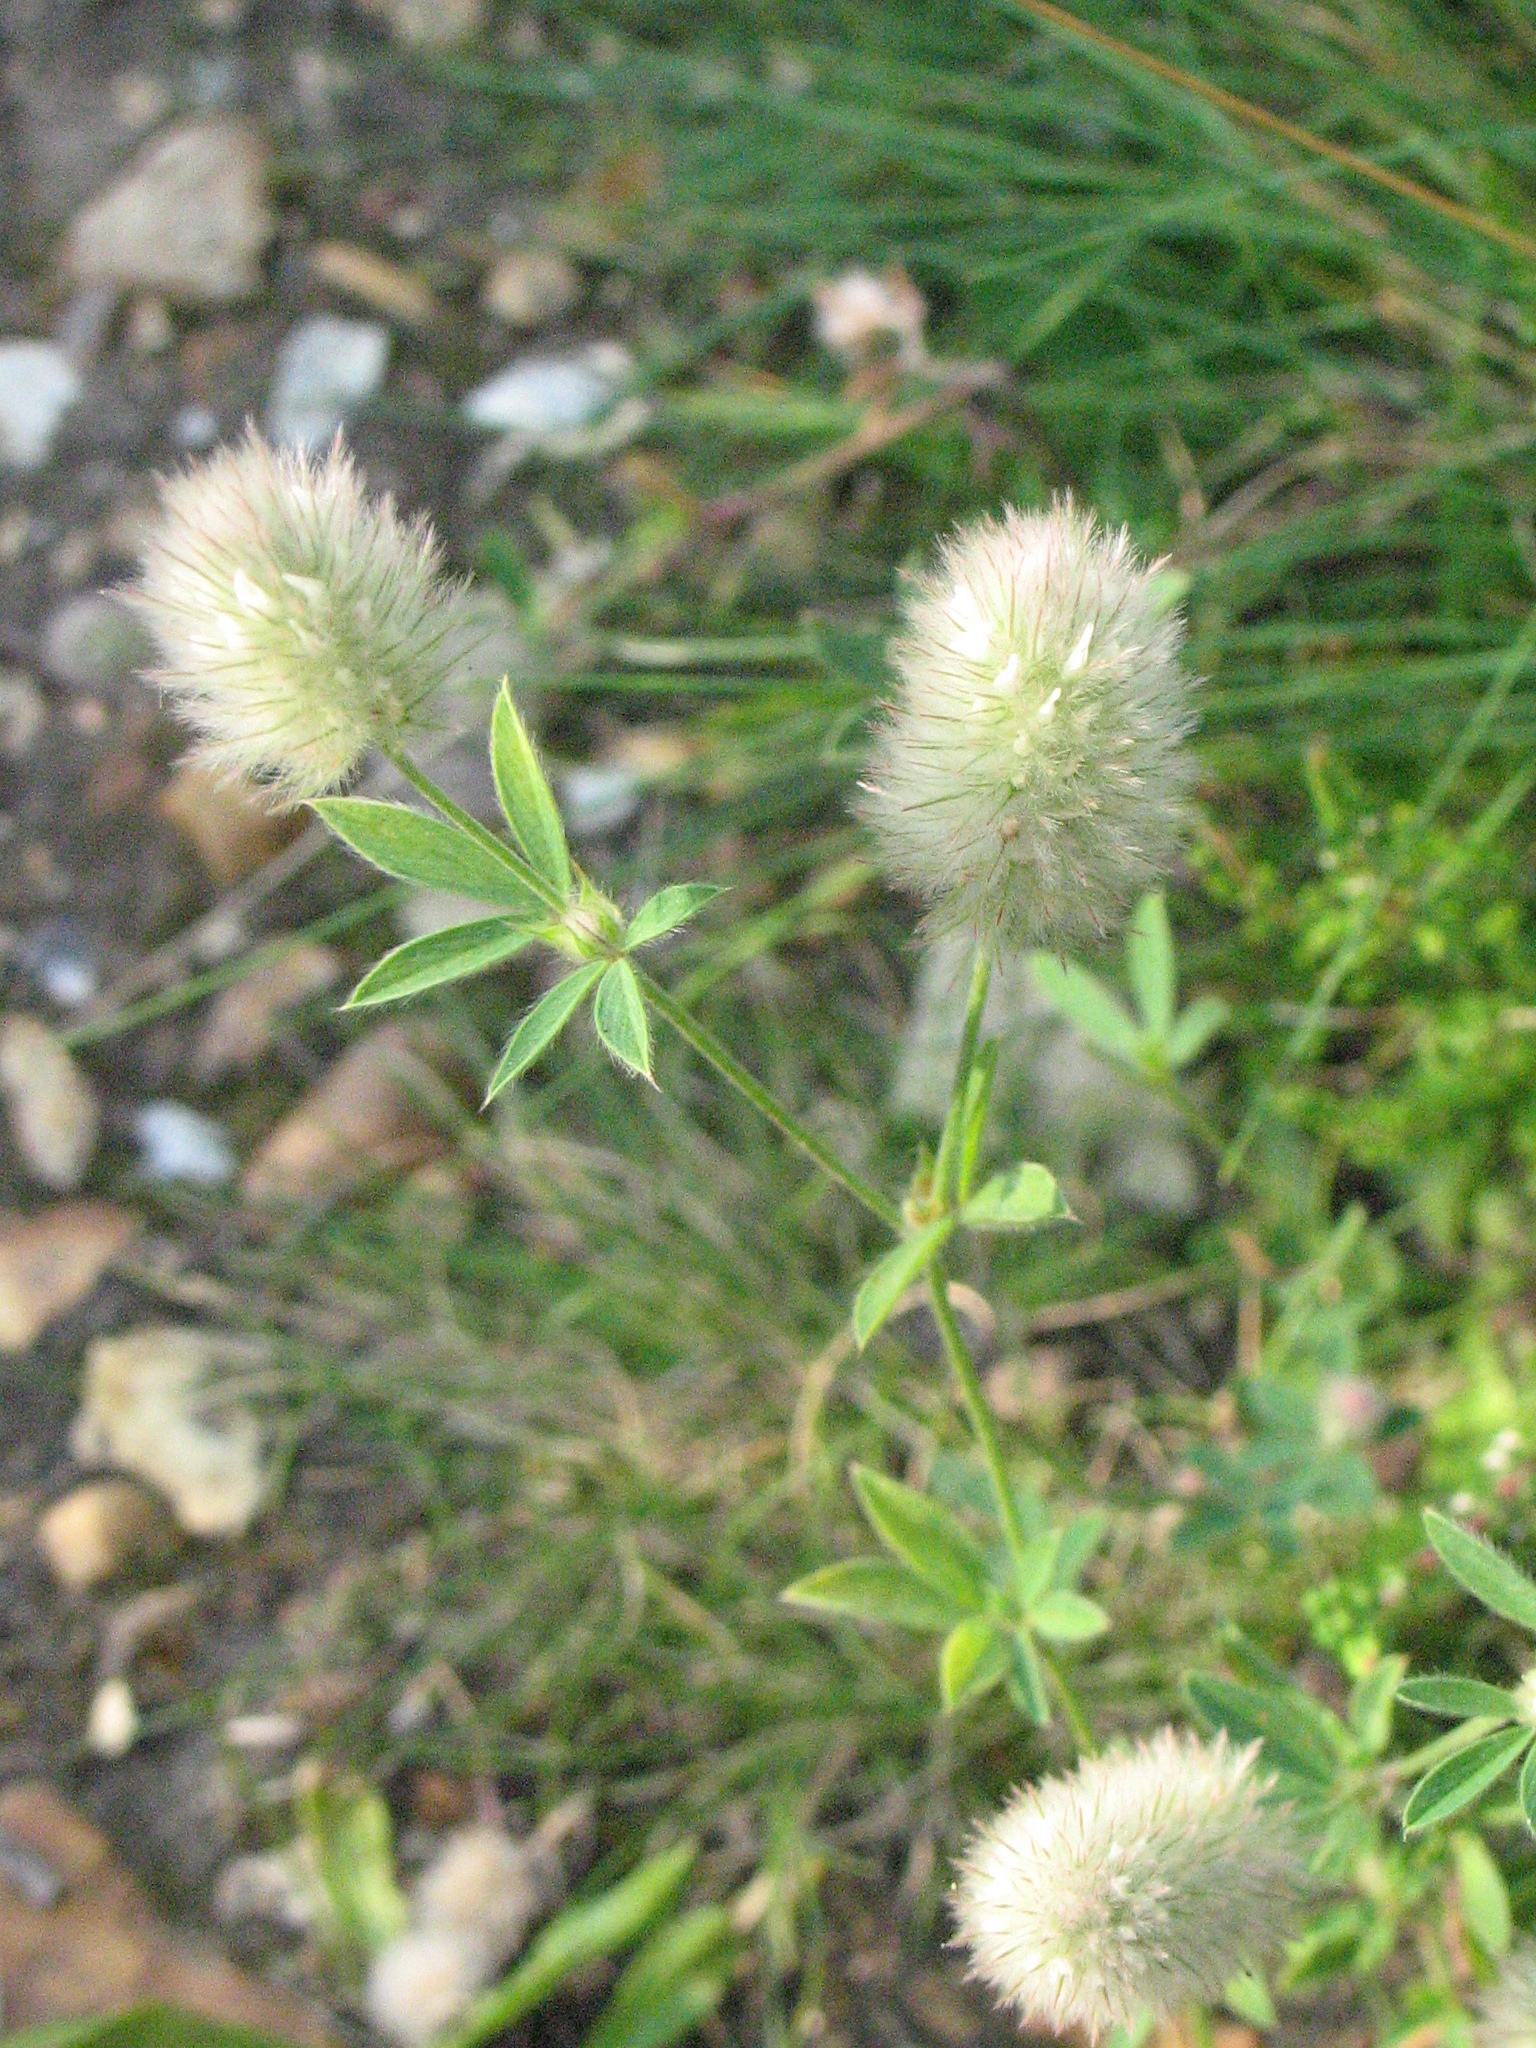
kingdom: Plantae
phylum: Tracheophyta
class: Magnoliopsida
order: Fabales
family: Fabaceae
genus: Trifolium
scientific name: Trifolium arvense
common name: Hare's-foot clover
